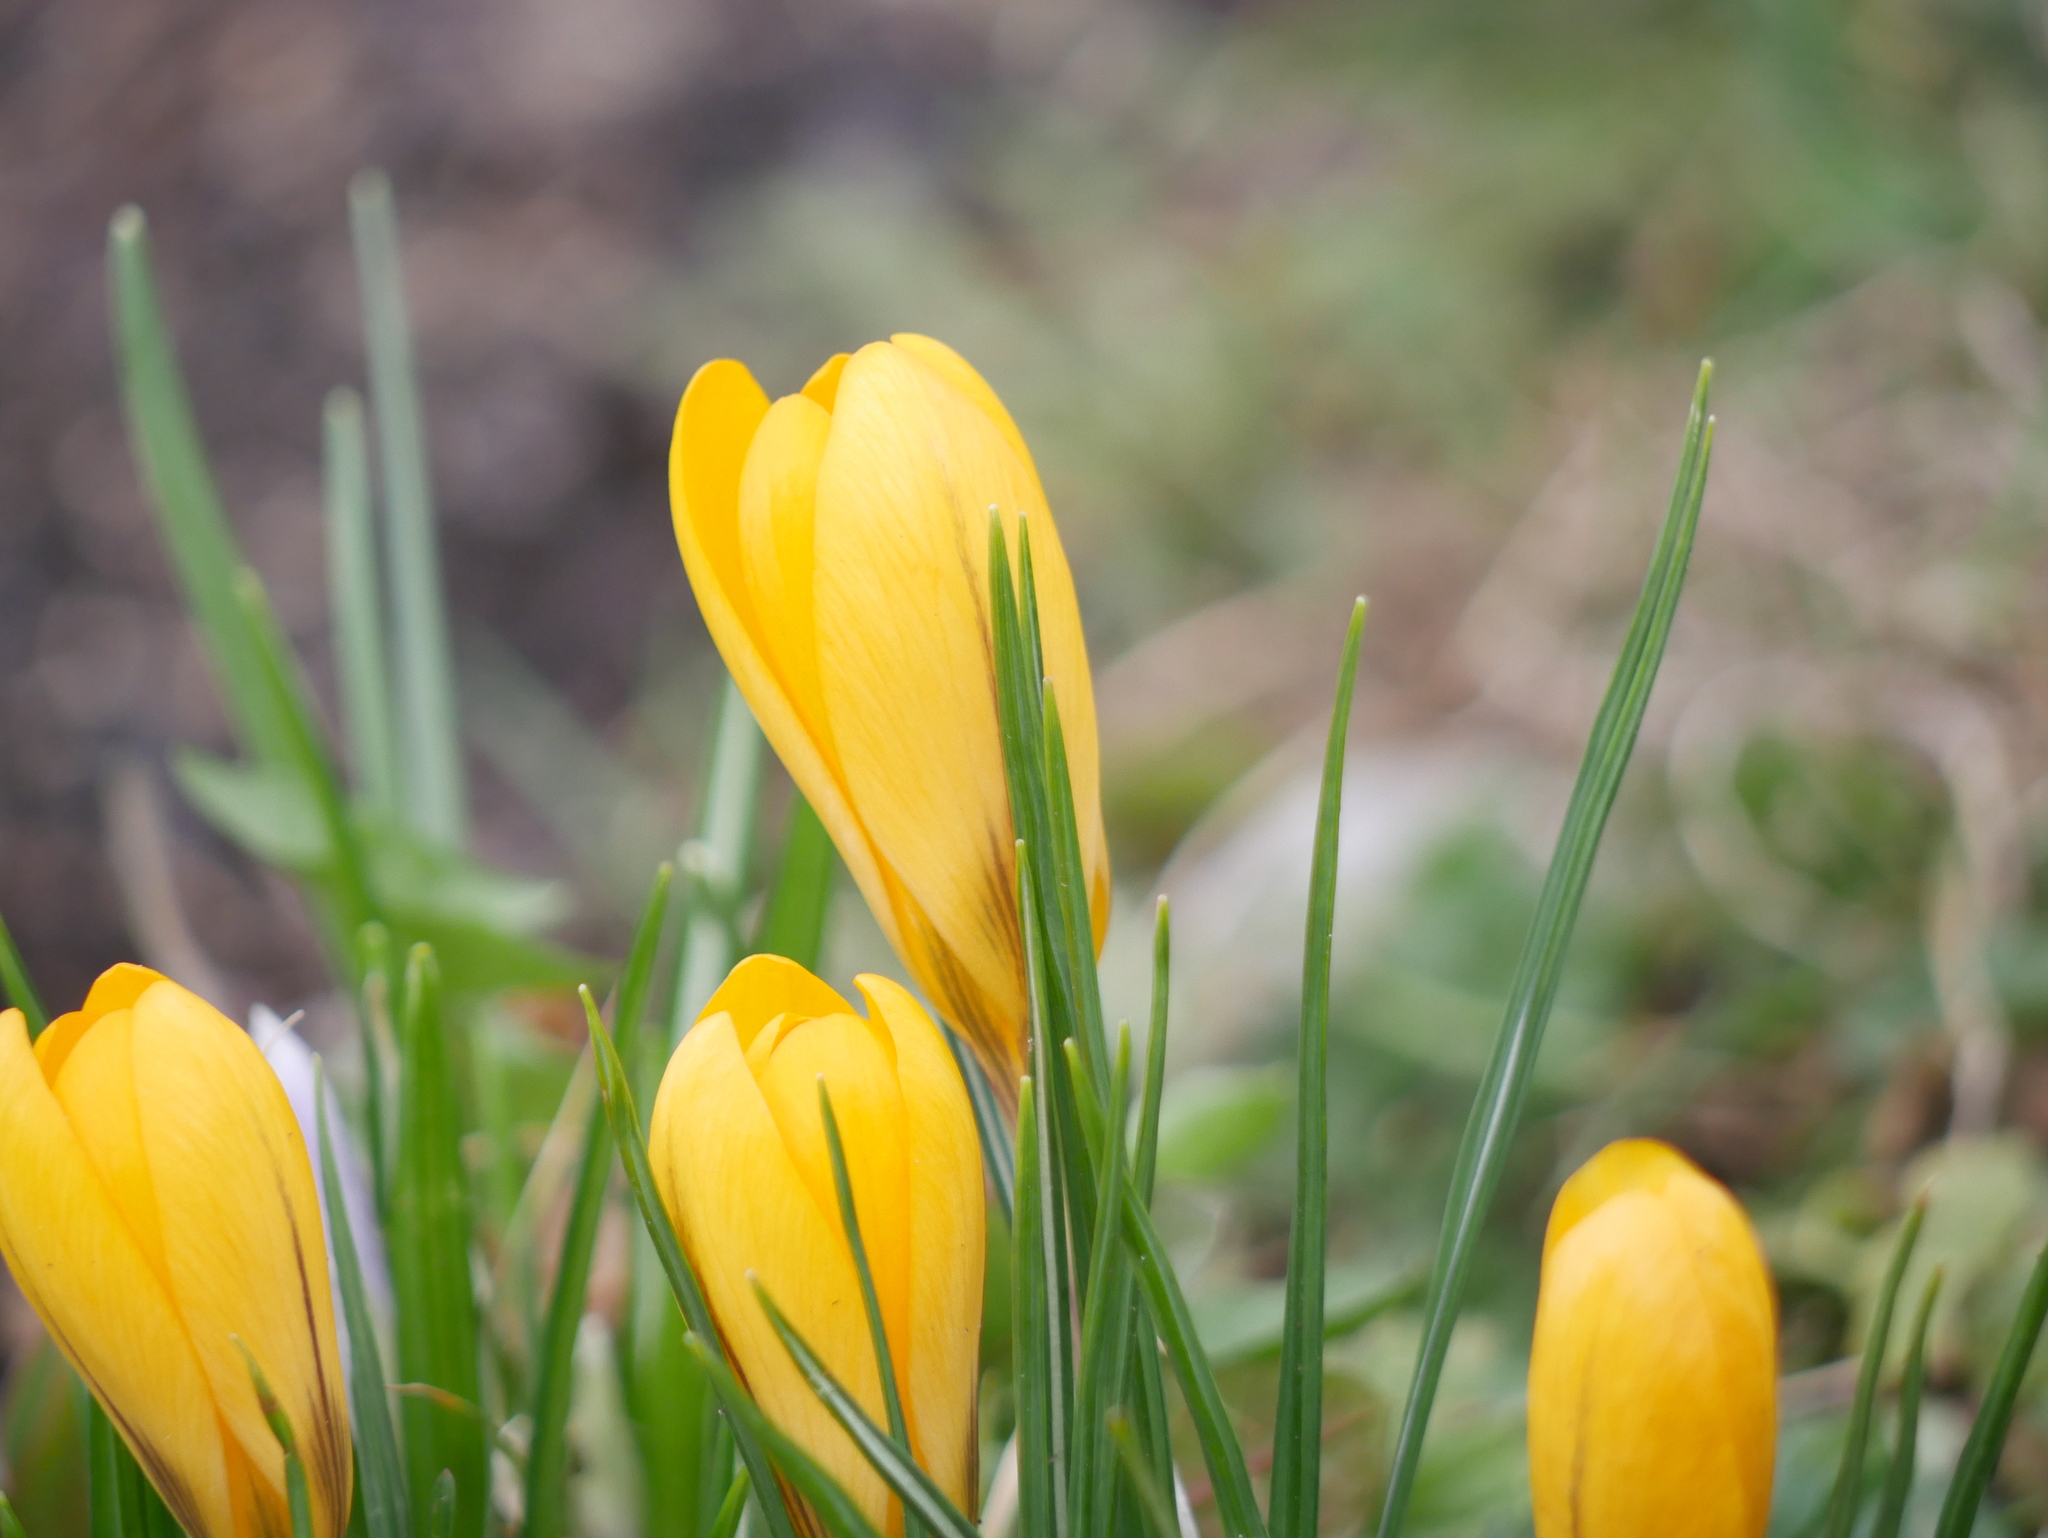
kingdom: Plantae
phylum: Tracheophyta
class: Liliopsida
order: Asparagales
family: Iridaceae
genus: Crocus
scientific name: Crocus luteus
